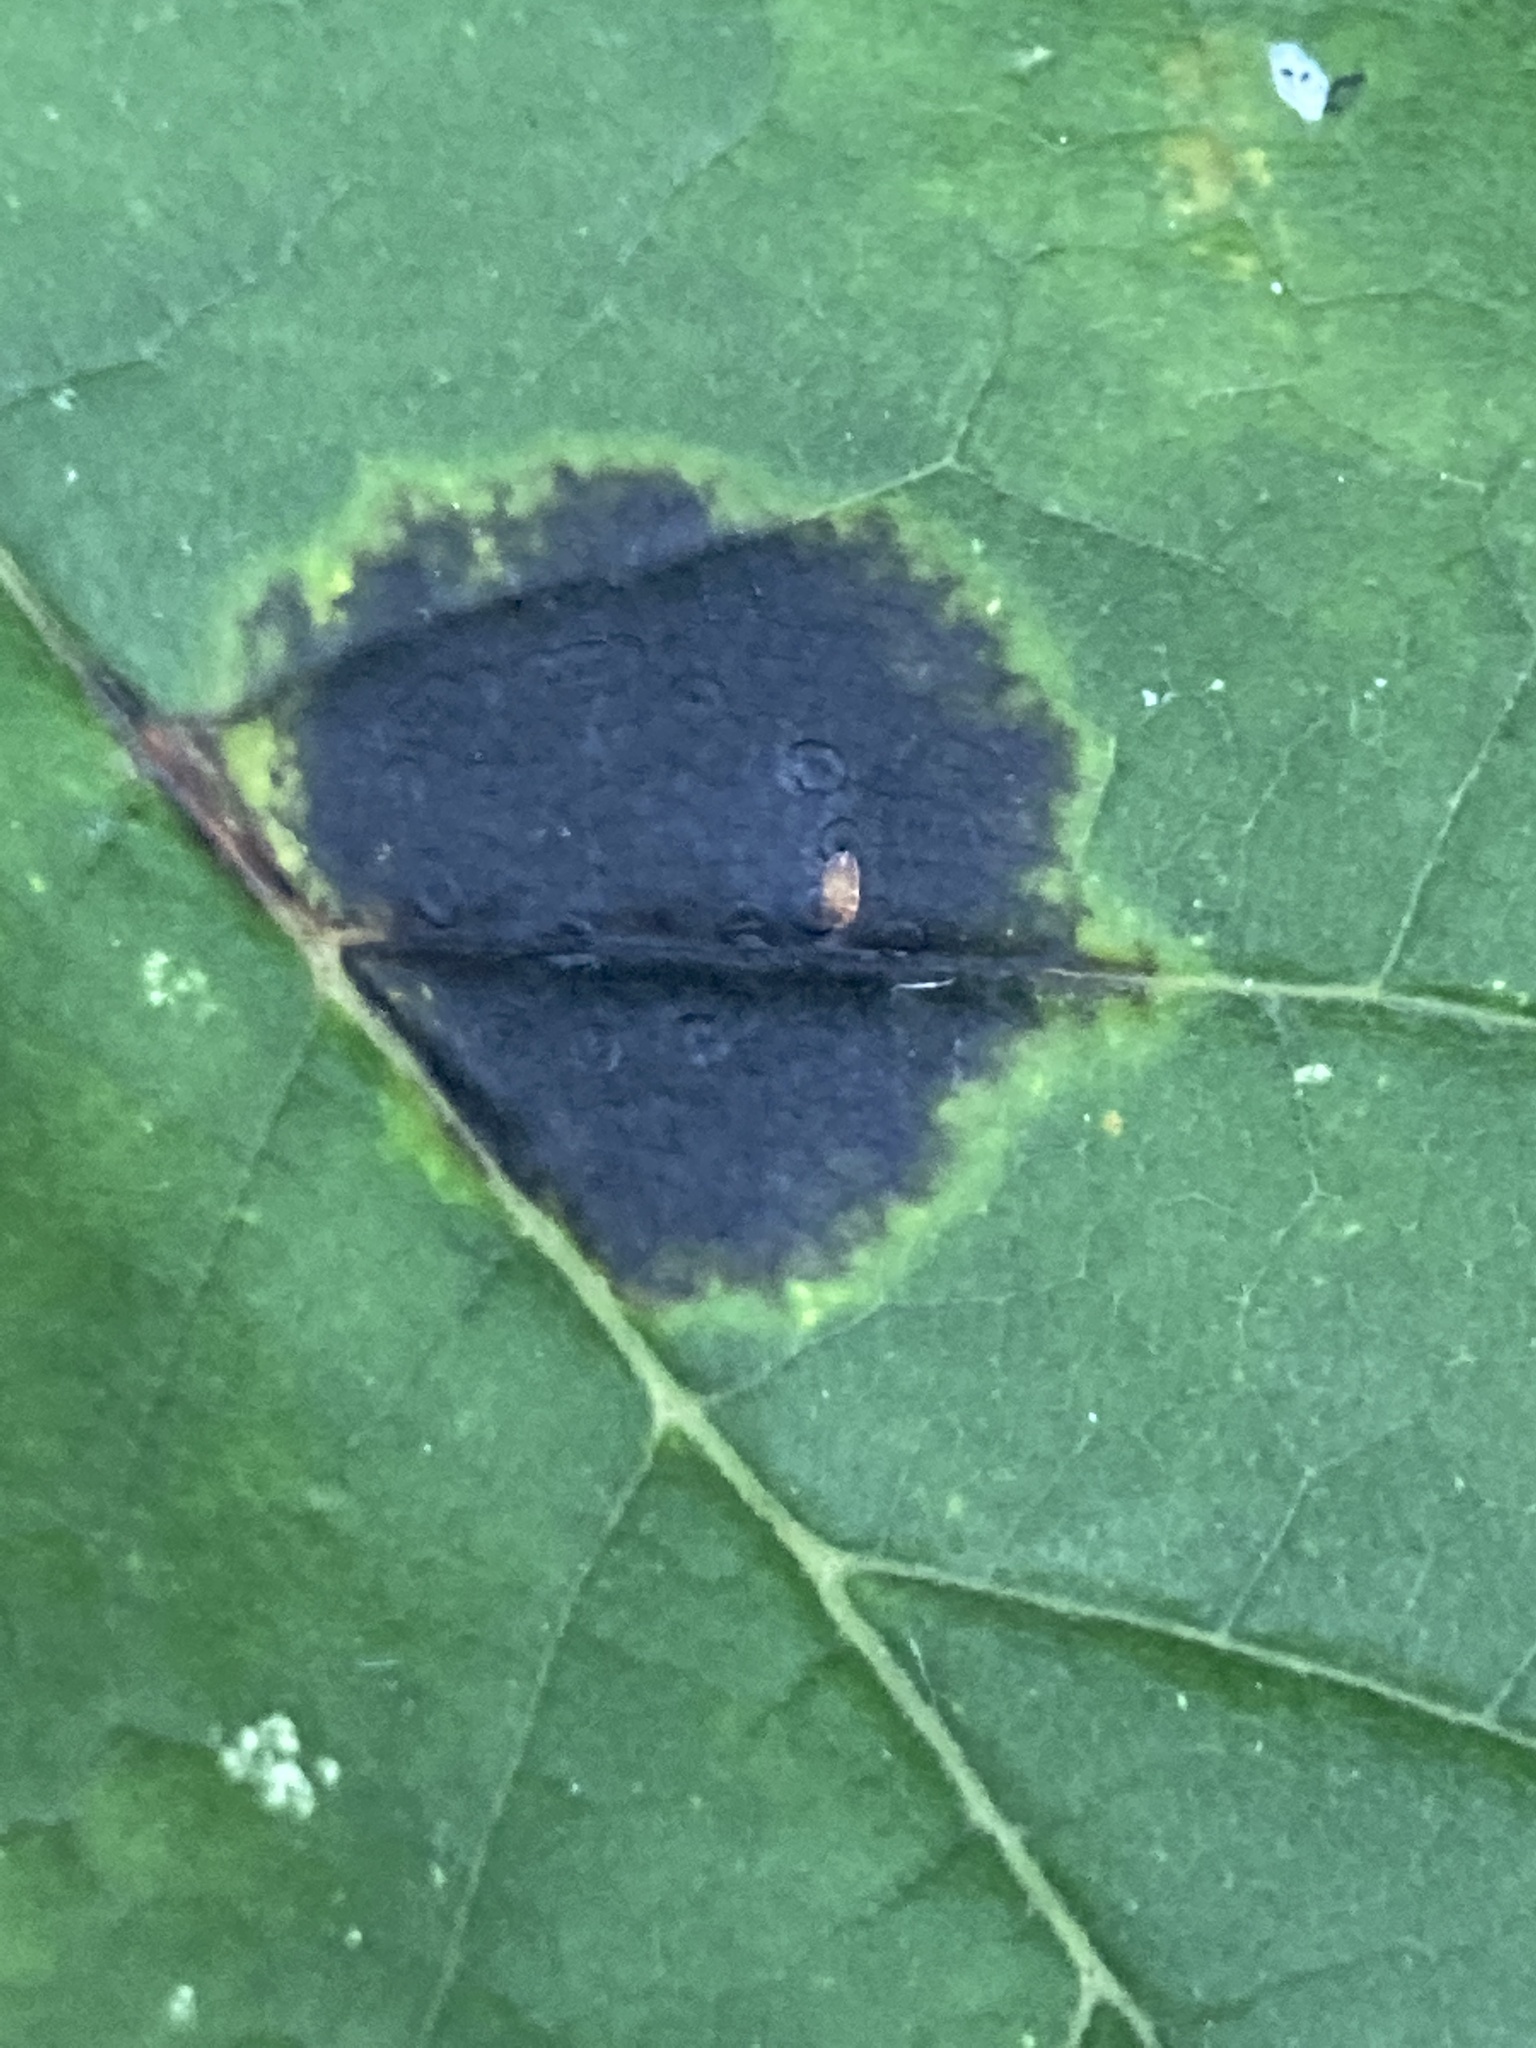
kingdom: Fungi
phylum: Ascomycota
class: Leotiomycetes
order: Rhytismatales
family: Rhytismataceae
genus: Rhytisma
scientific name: Rhytisma acerinum
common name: European tar spot
